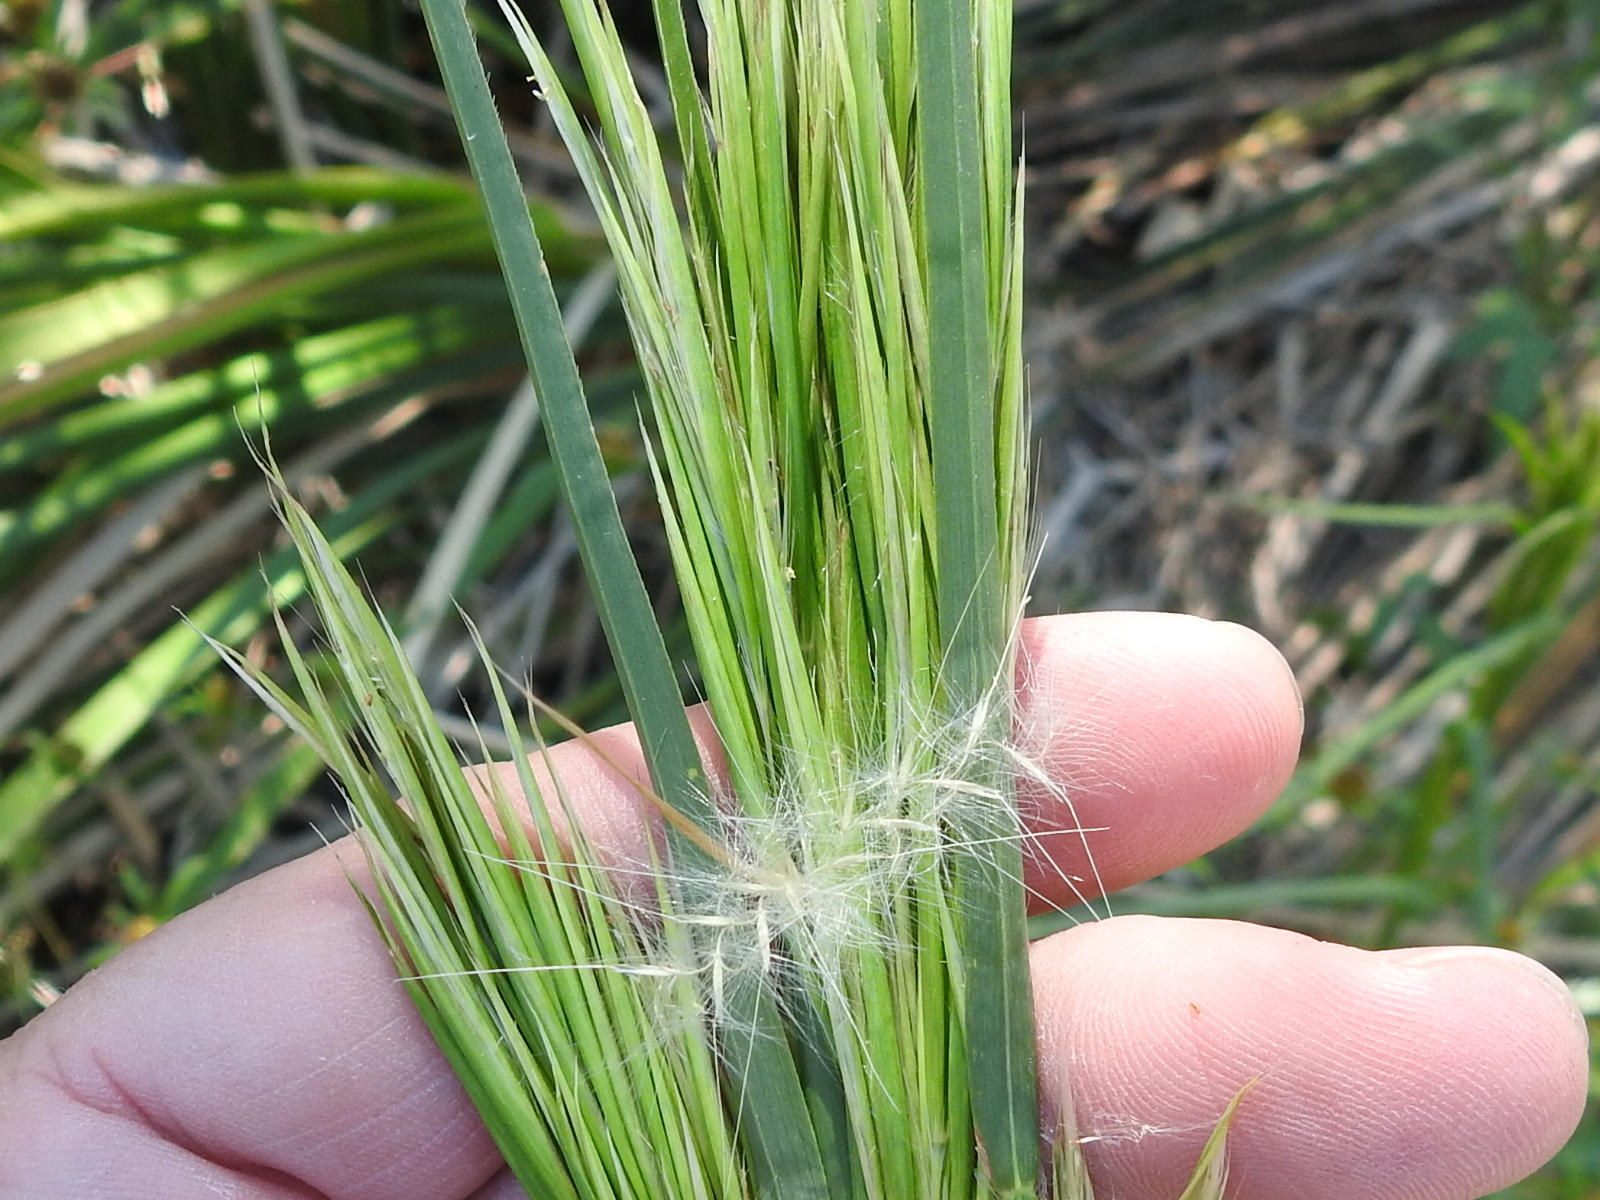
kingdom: Plantae
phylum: Tracheophyta
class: Liliopsida
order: Poales
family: Poaceae
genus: Andropogon
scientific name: Andropogon tenuispatheus
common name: Bushy bluestem
